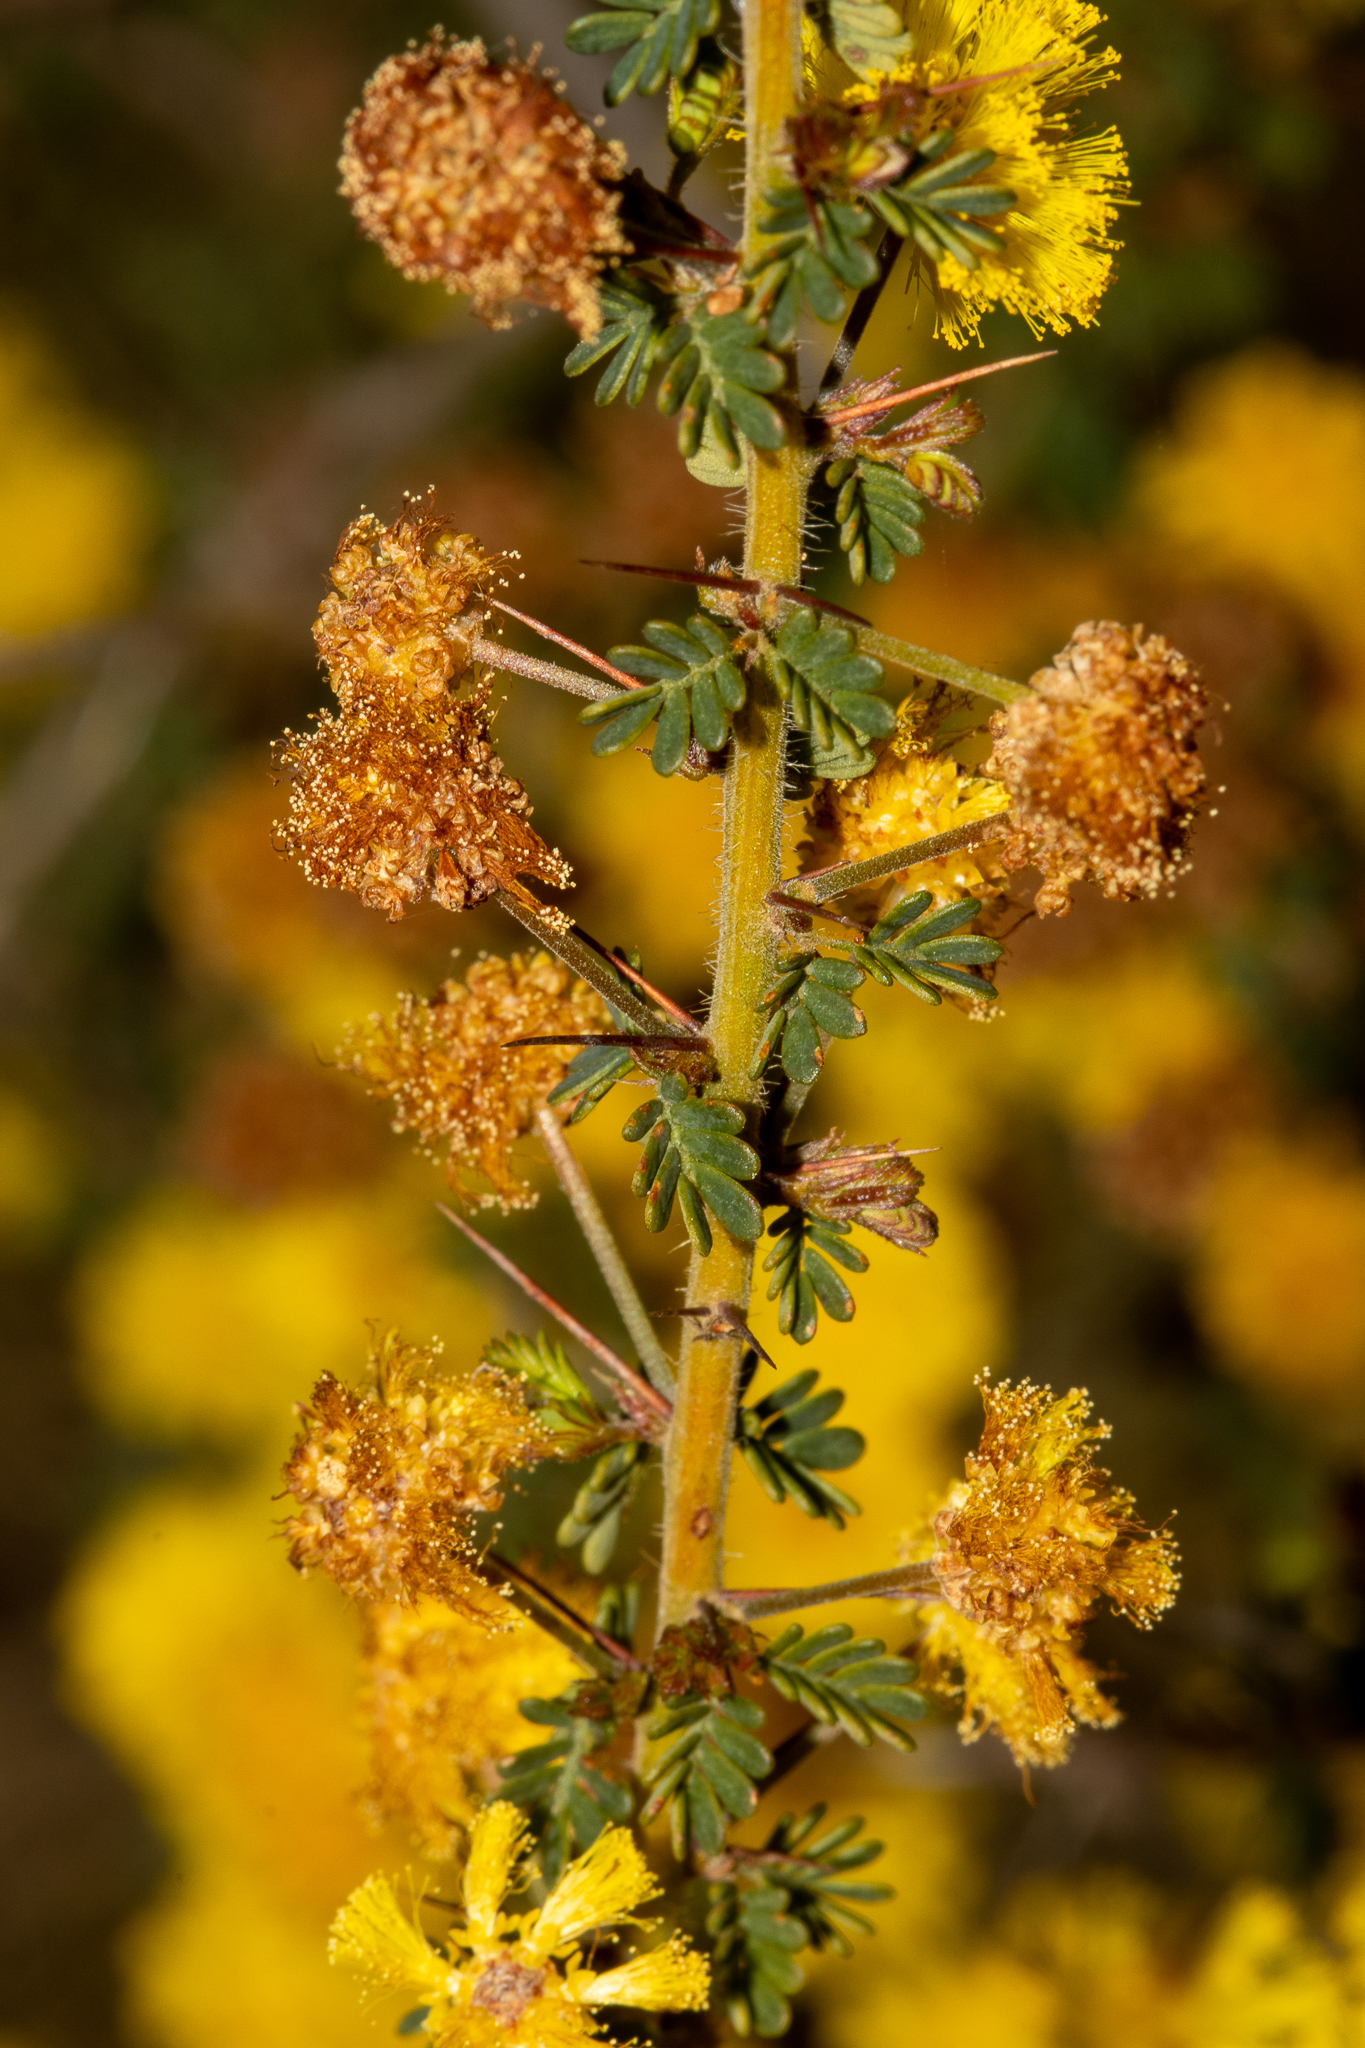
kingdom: Plantae
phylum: Tracheophyta
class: Magnoliopsida
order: Fabales
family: Fabaceae
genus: Acacia
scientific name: Acacia pulchella
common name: Prickly moses
